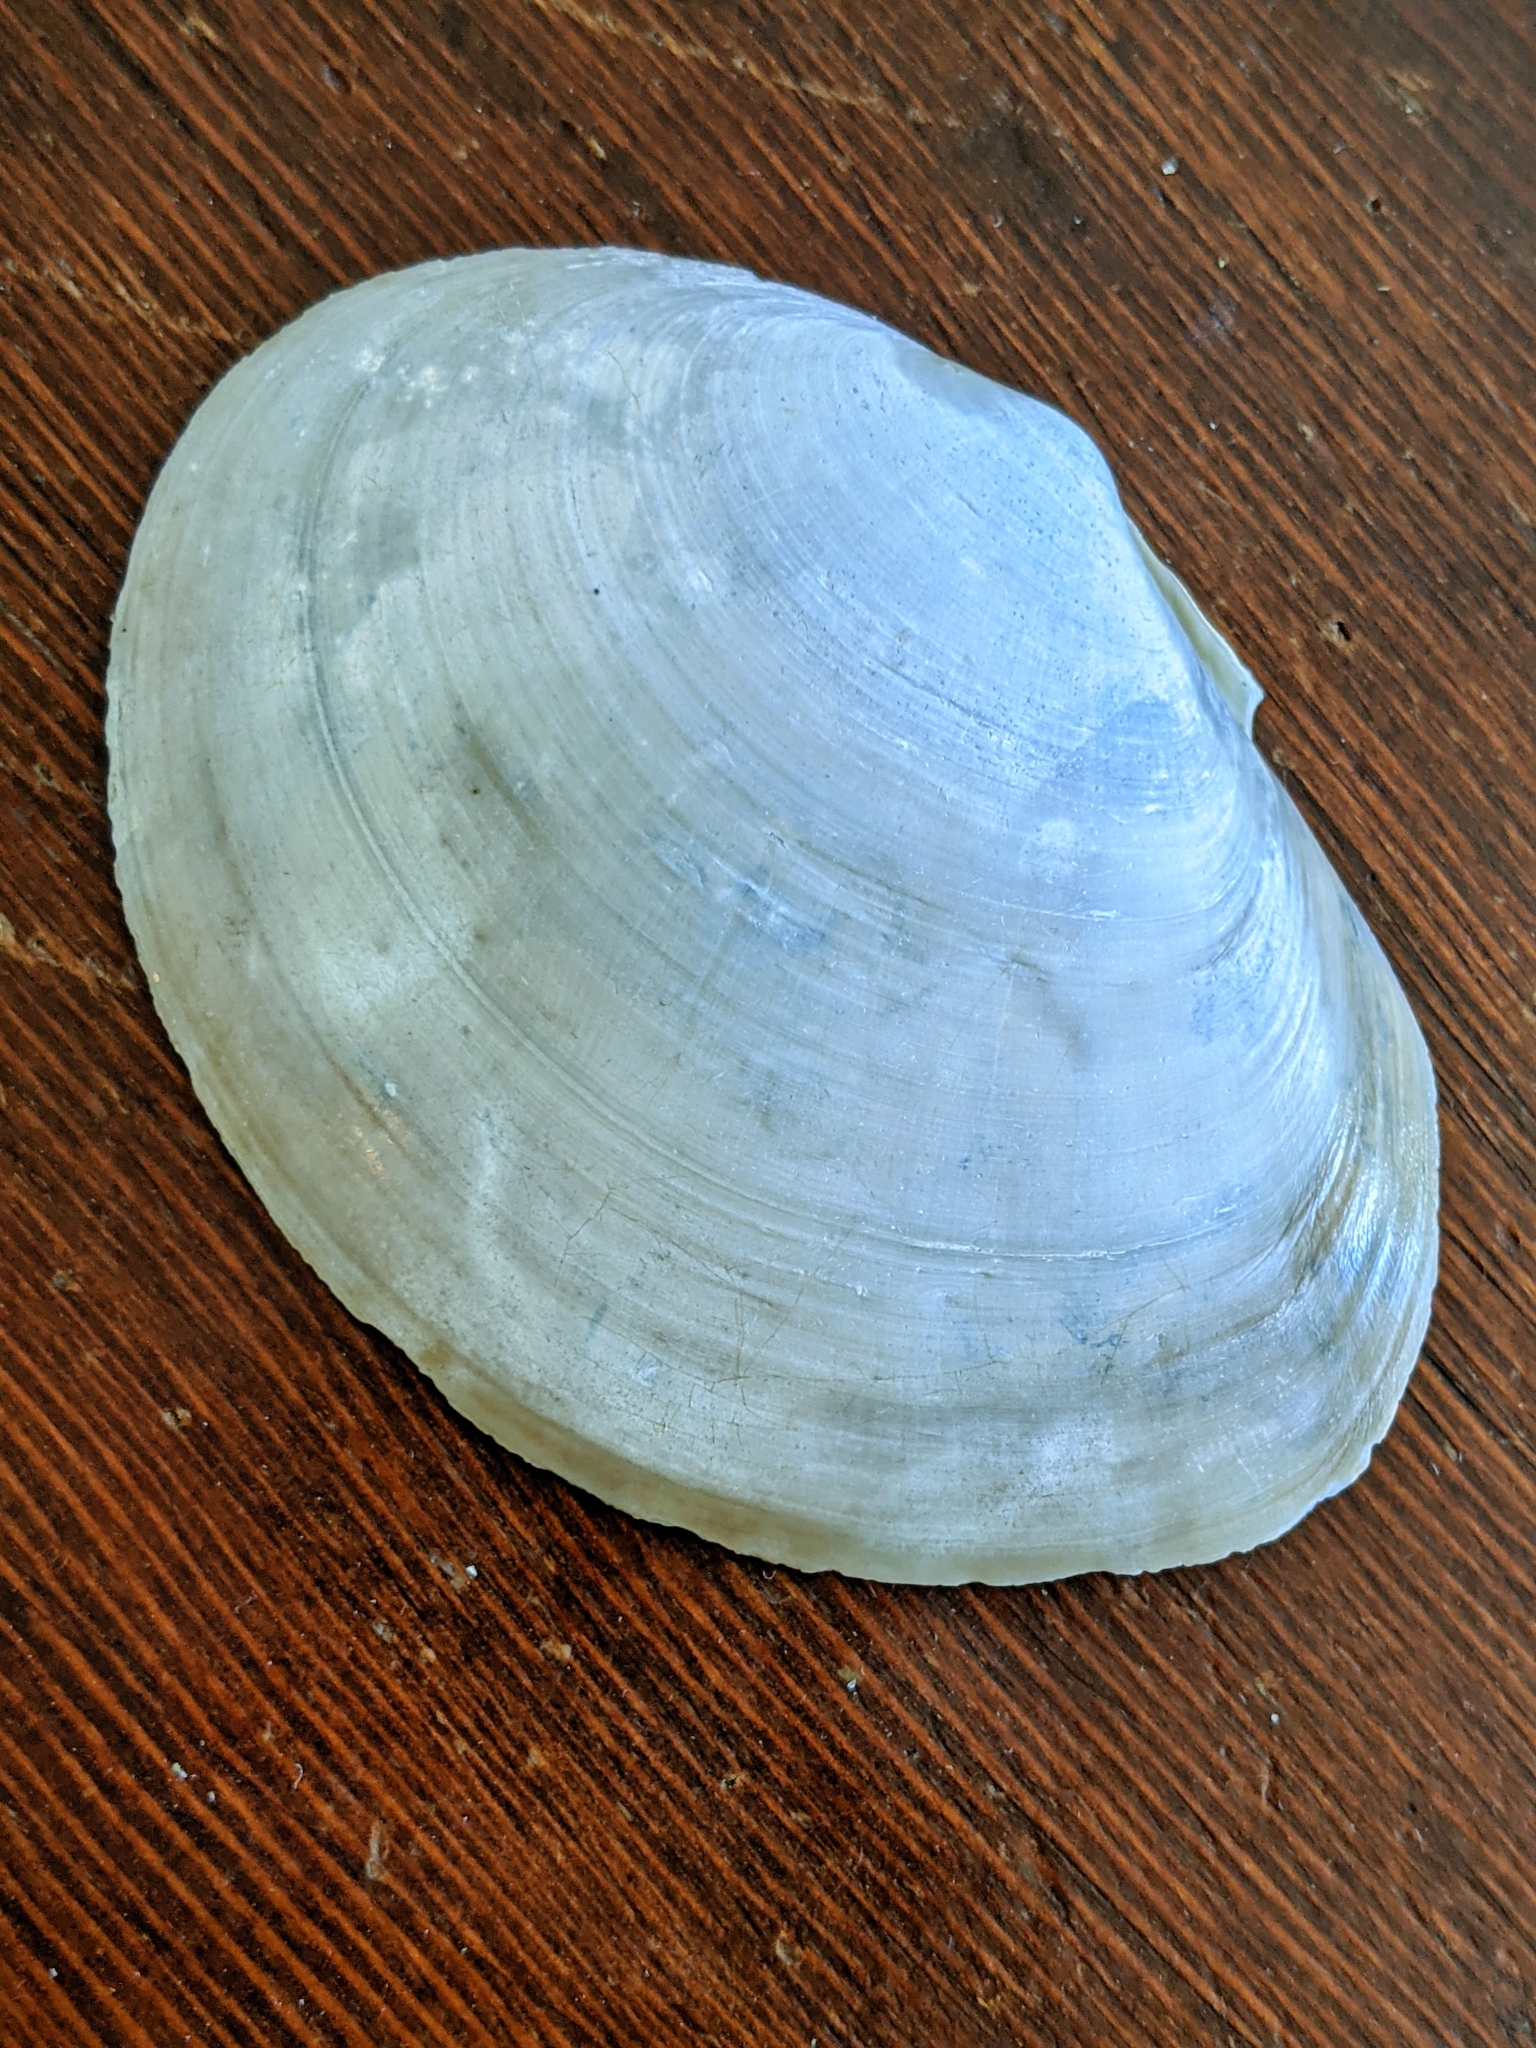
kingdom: Animalia
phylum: Mollusca
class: Bivalvia
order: Cardiida
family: Psammobiidae
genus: Nuttallia
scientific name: Nuttallia nuttallii
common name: California mahogany-clam
